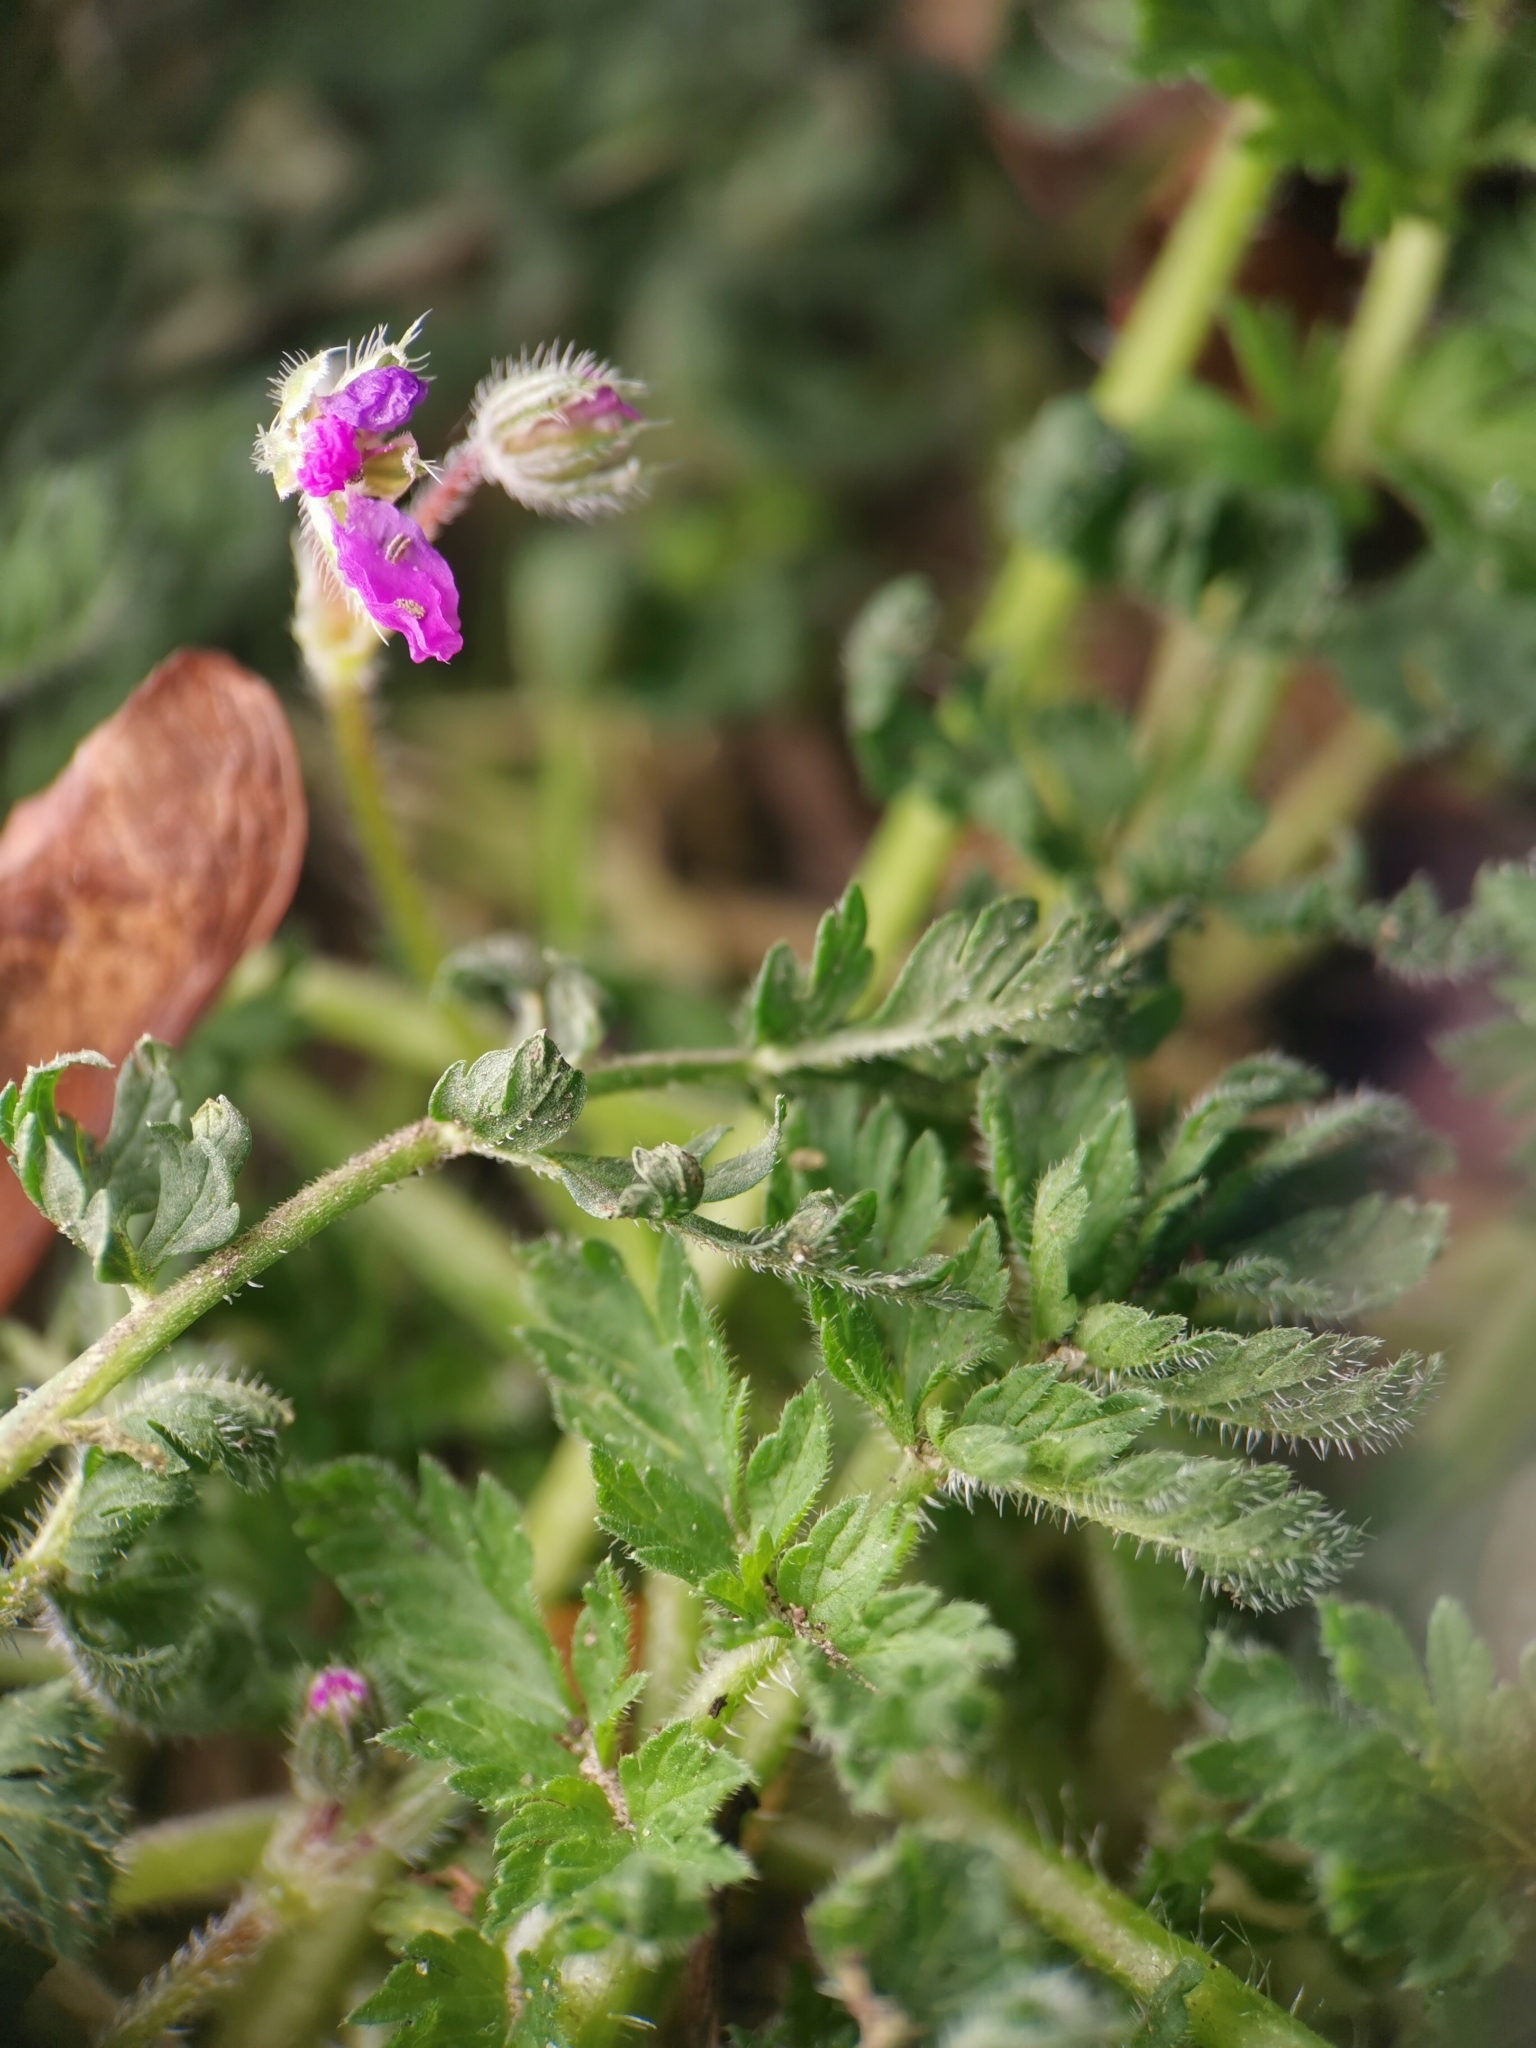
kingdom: Plantae
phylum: Tracheophyta
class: Magnoliopsida
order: Geraniales
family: Geraniaceae
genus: Erodium
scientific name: Erodium cicutarium
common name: Common stork's-bill
